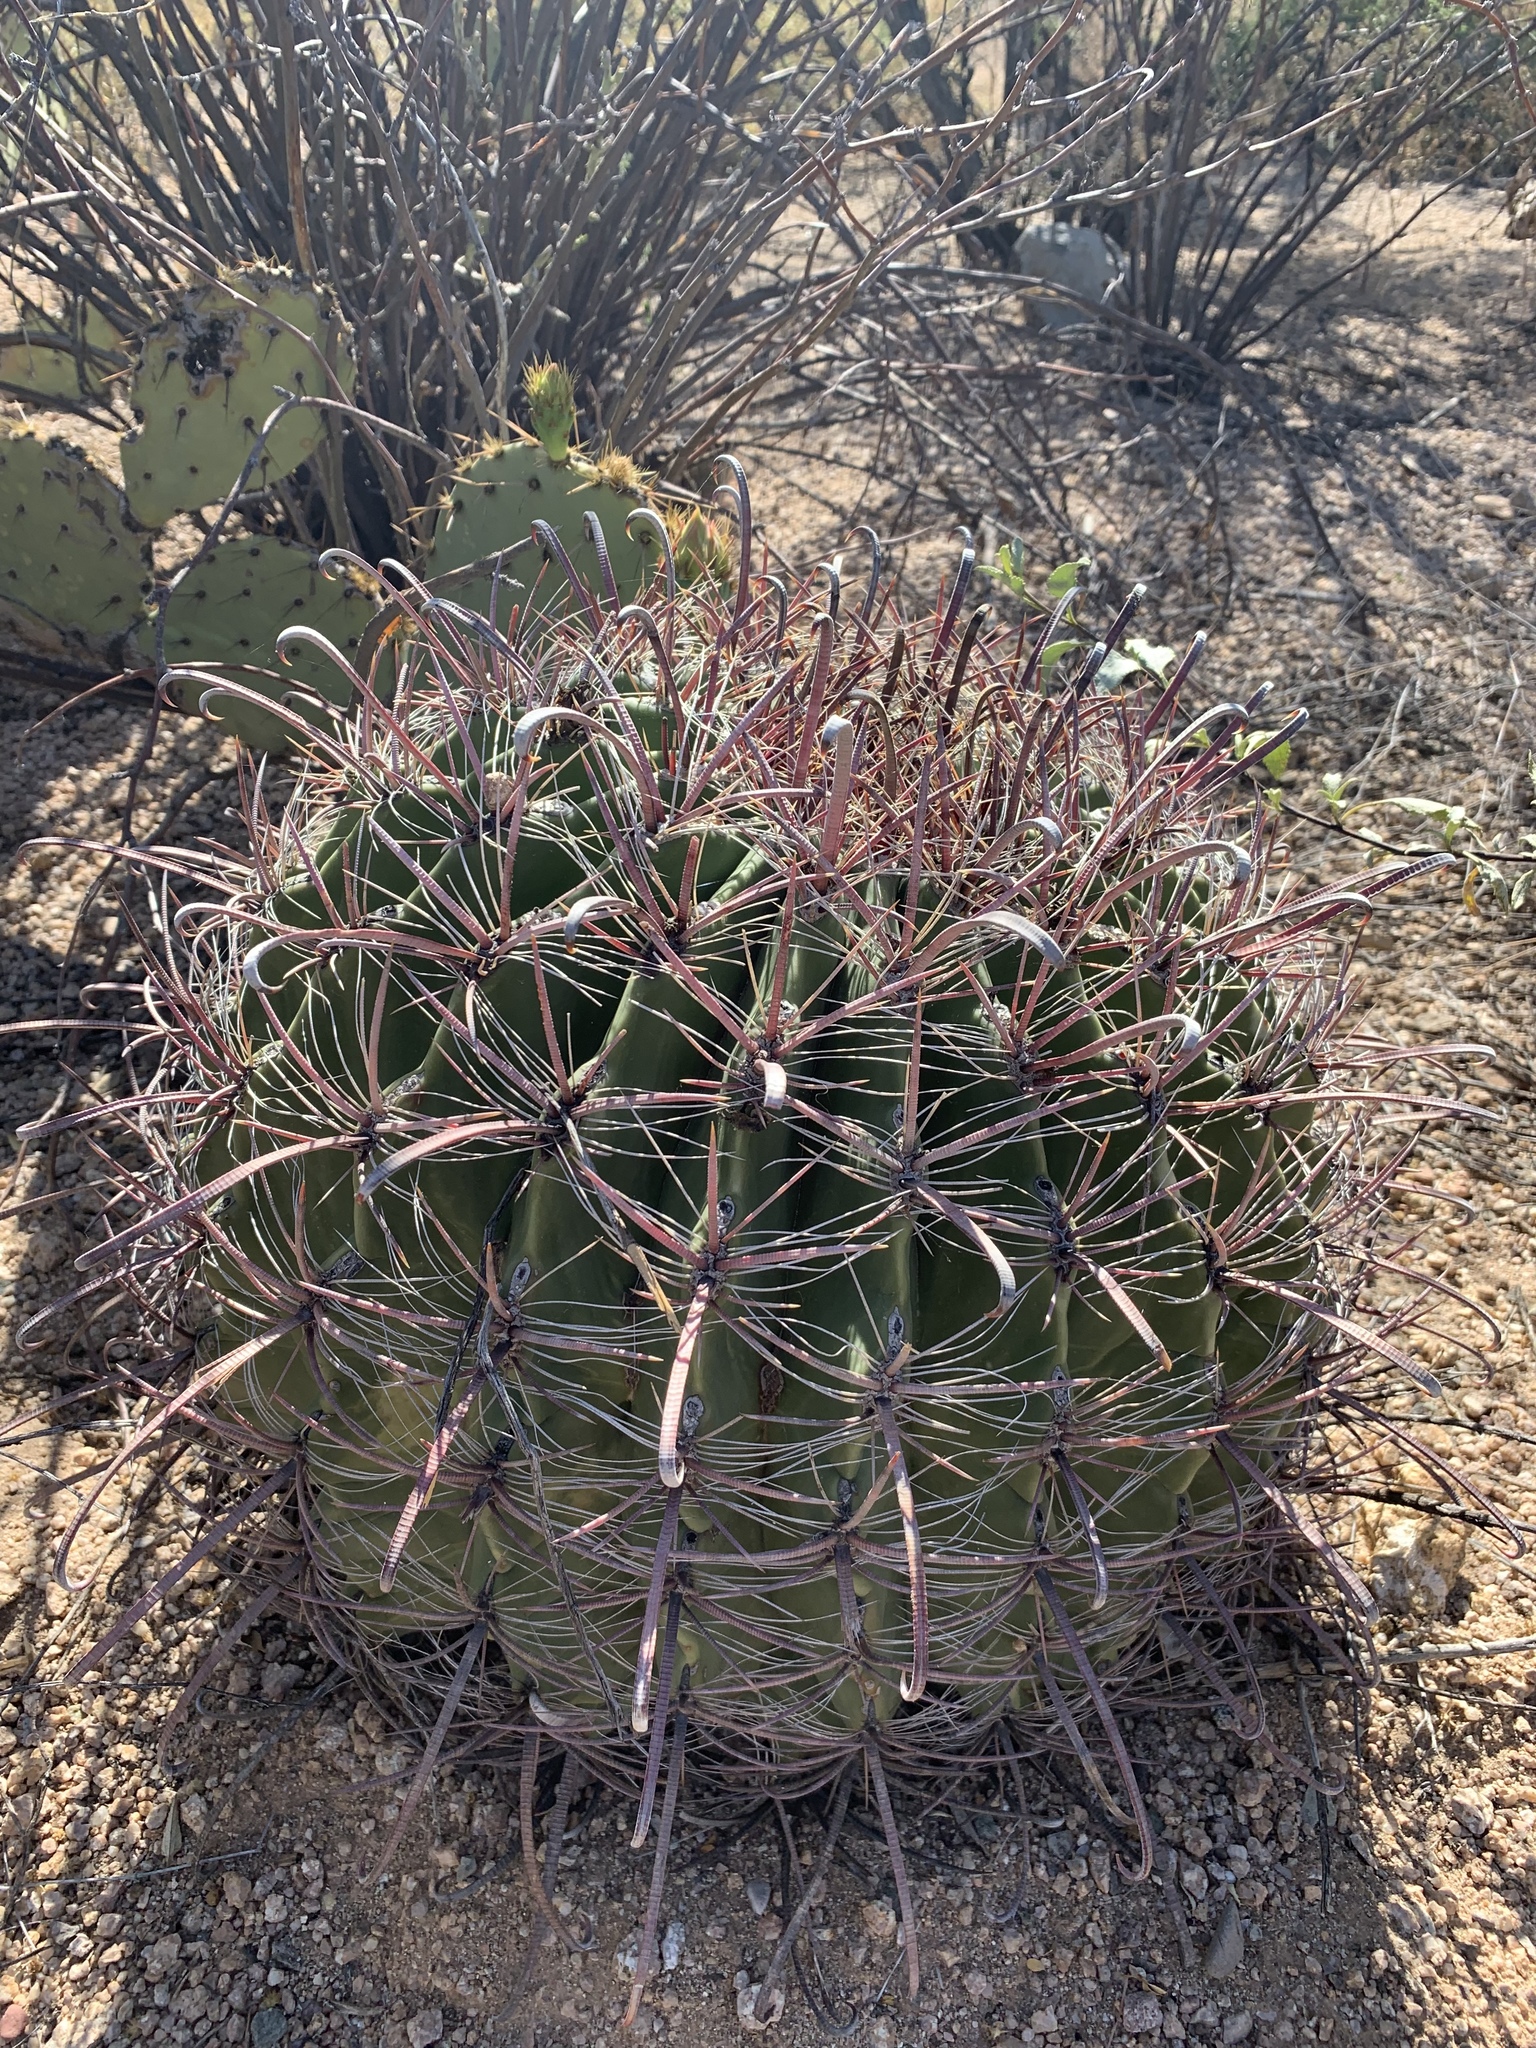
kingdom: Plantae
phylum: Tracheophyta
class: Magnoliopsida
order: Caryophyllales
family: Cactaceae
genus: Ferocactus
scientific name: Ferocactus wislizeni
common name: Candy barrel cactus
